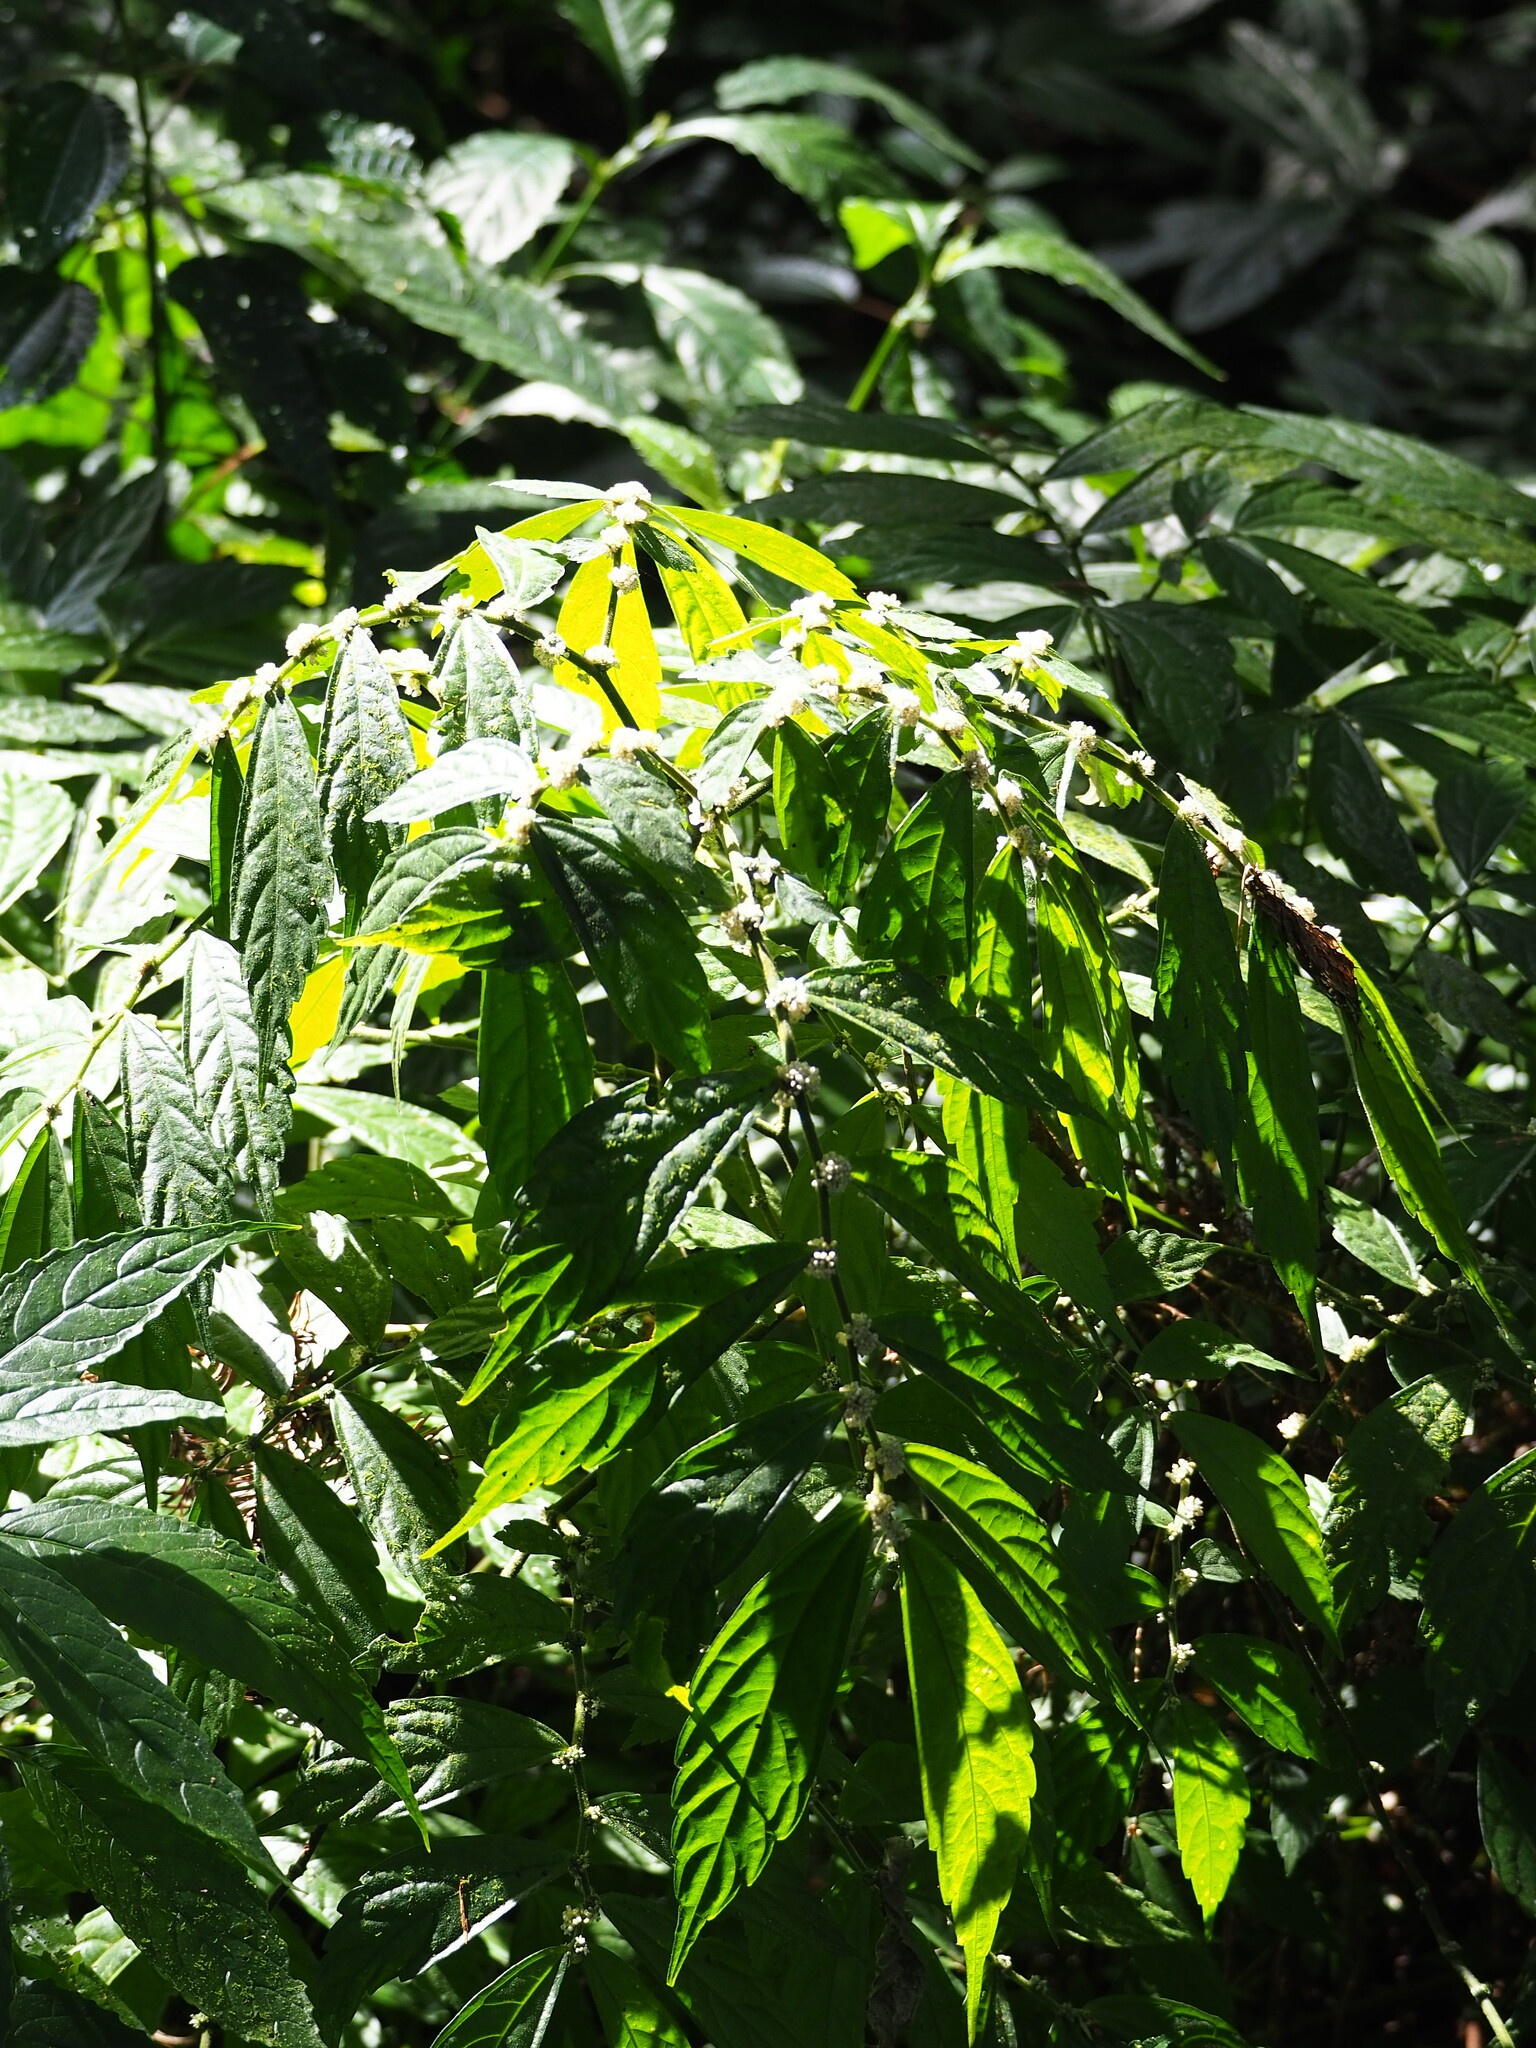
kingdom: Plantae
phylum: Tracheophyta
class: Magnoliopsida
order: Rosales
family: Urticaceae
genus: Elatostema
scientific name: Elatostema lineolatum
